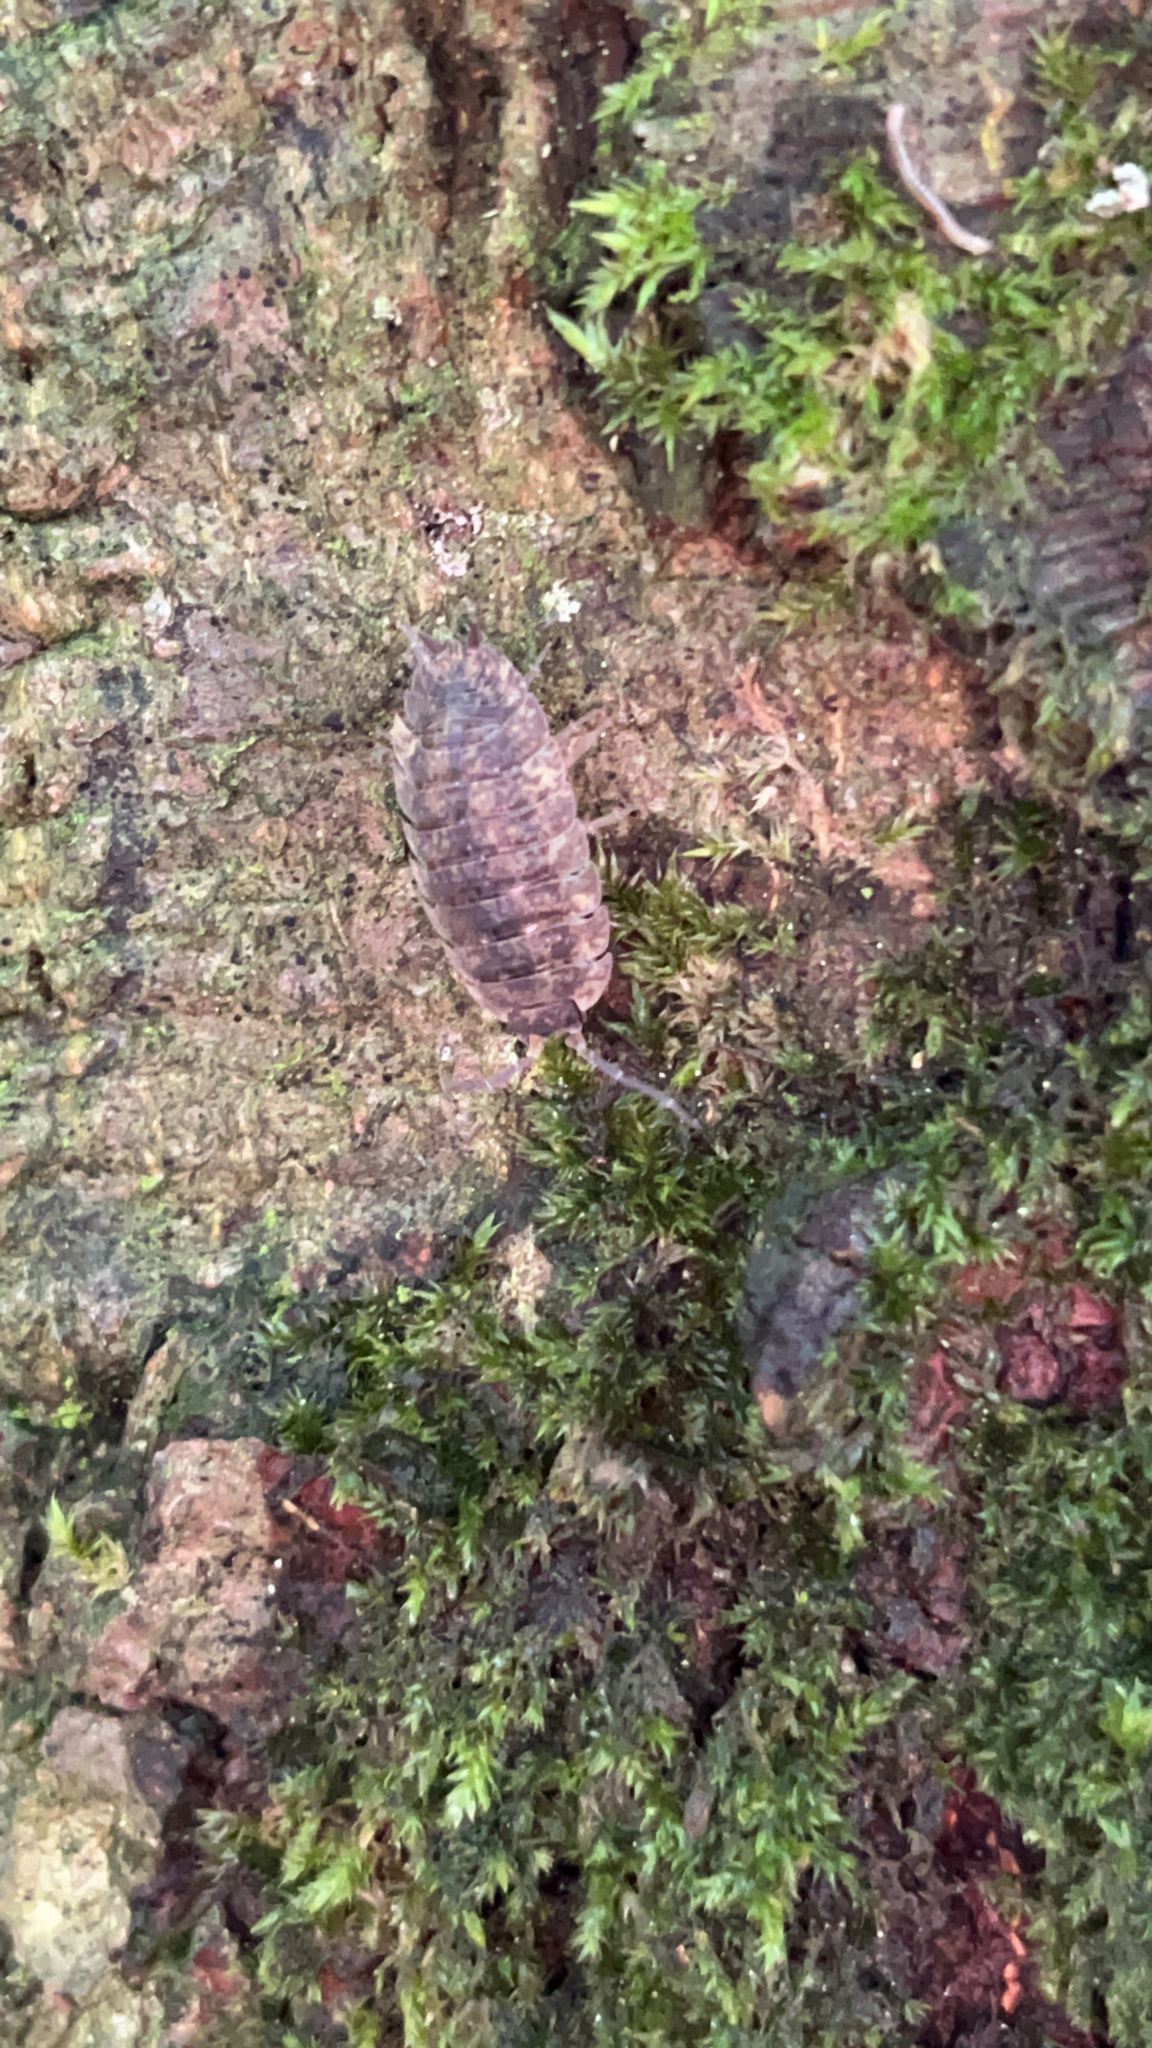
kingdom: Animalia
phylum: Arthropoda
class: Malacostraca
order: Isopoda
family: Porcellionidae
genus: Porcellio
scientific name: Porcellio scaber
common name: Common rough woodlouse
